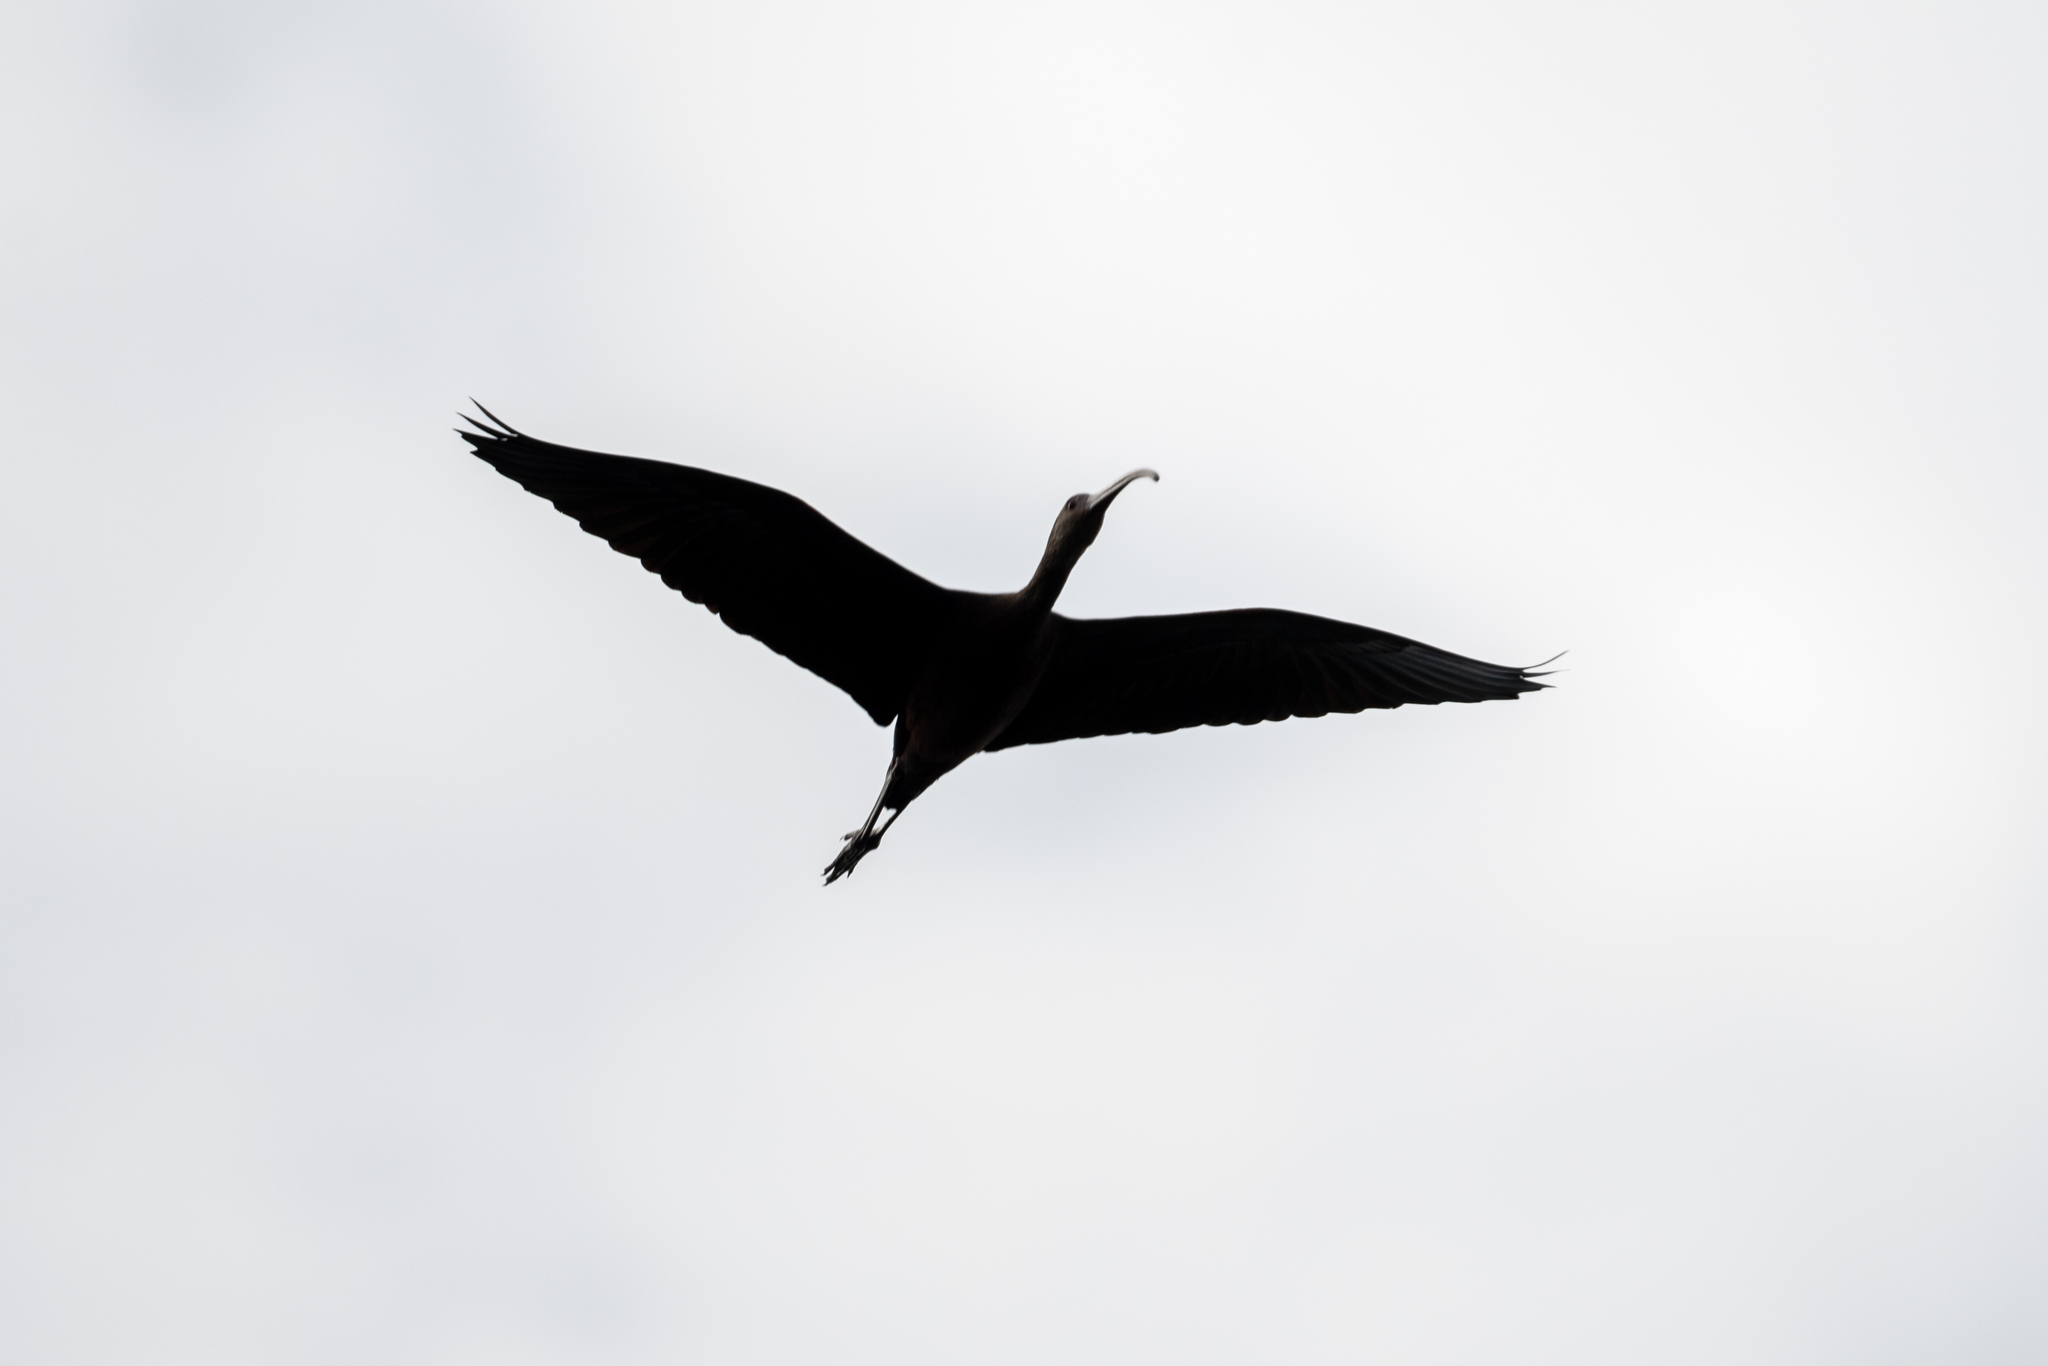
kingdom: Animalia
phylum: Chordata
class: Aves
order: Pelecaniformes
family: Threskiornithidae
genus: Plegadis
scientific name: Plegadis chihi
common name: White-faced ibis
